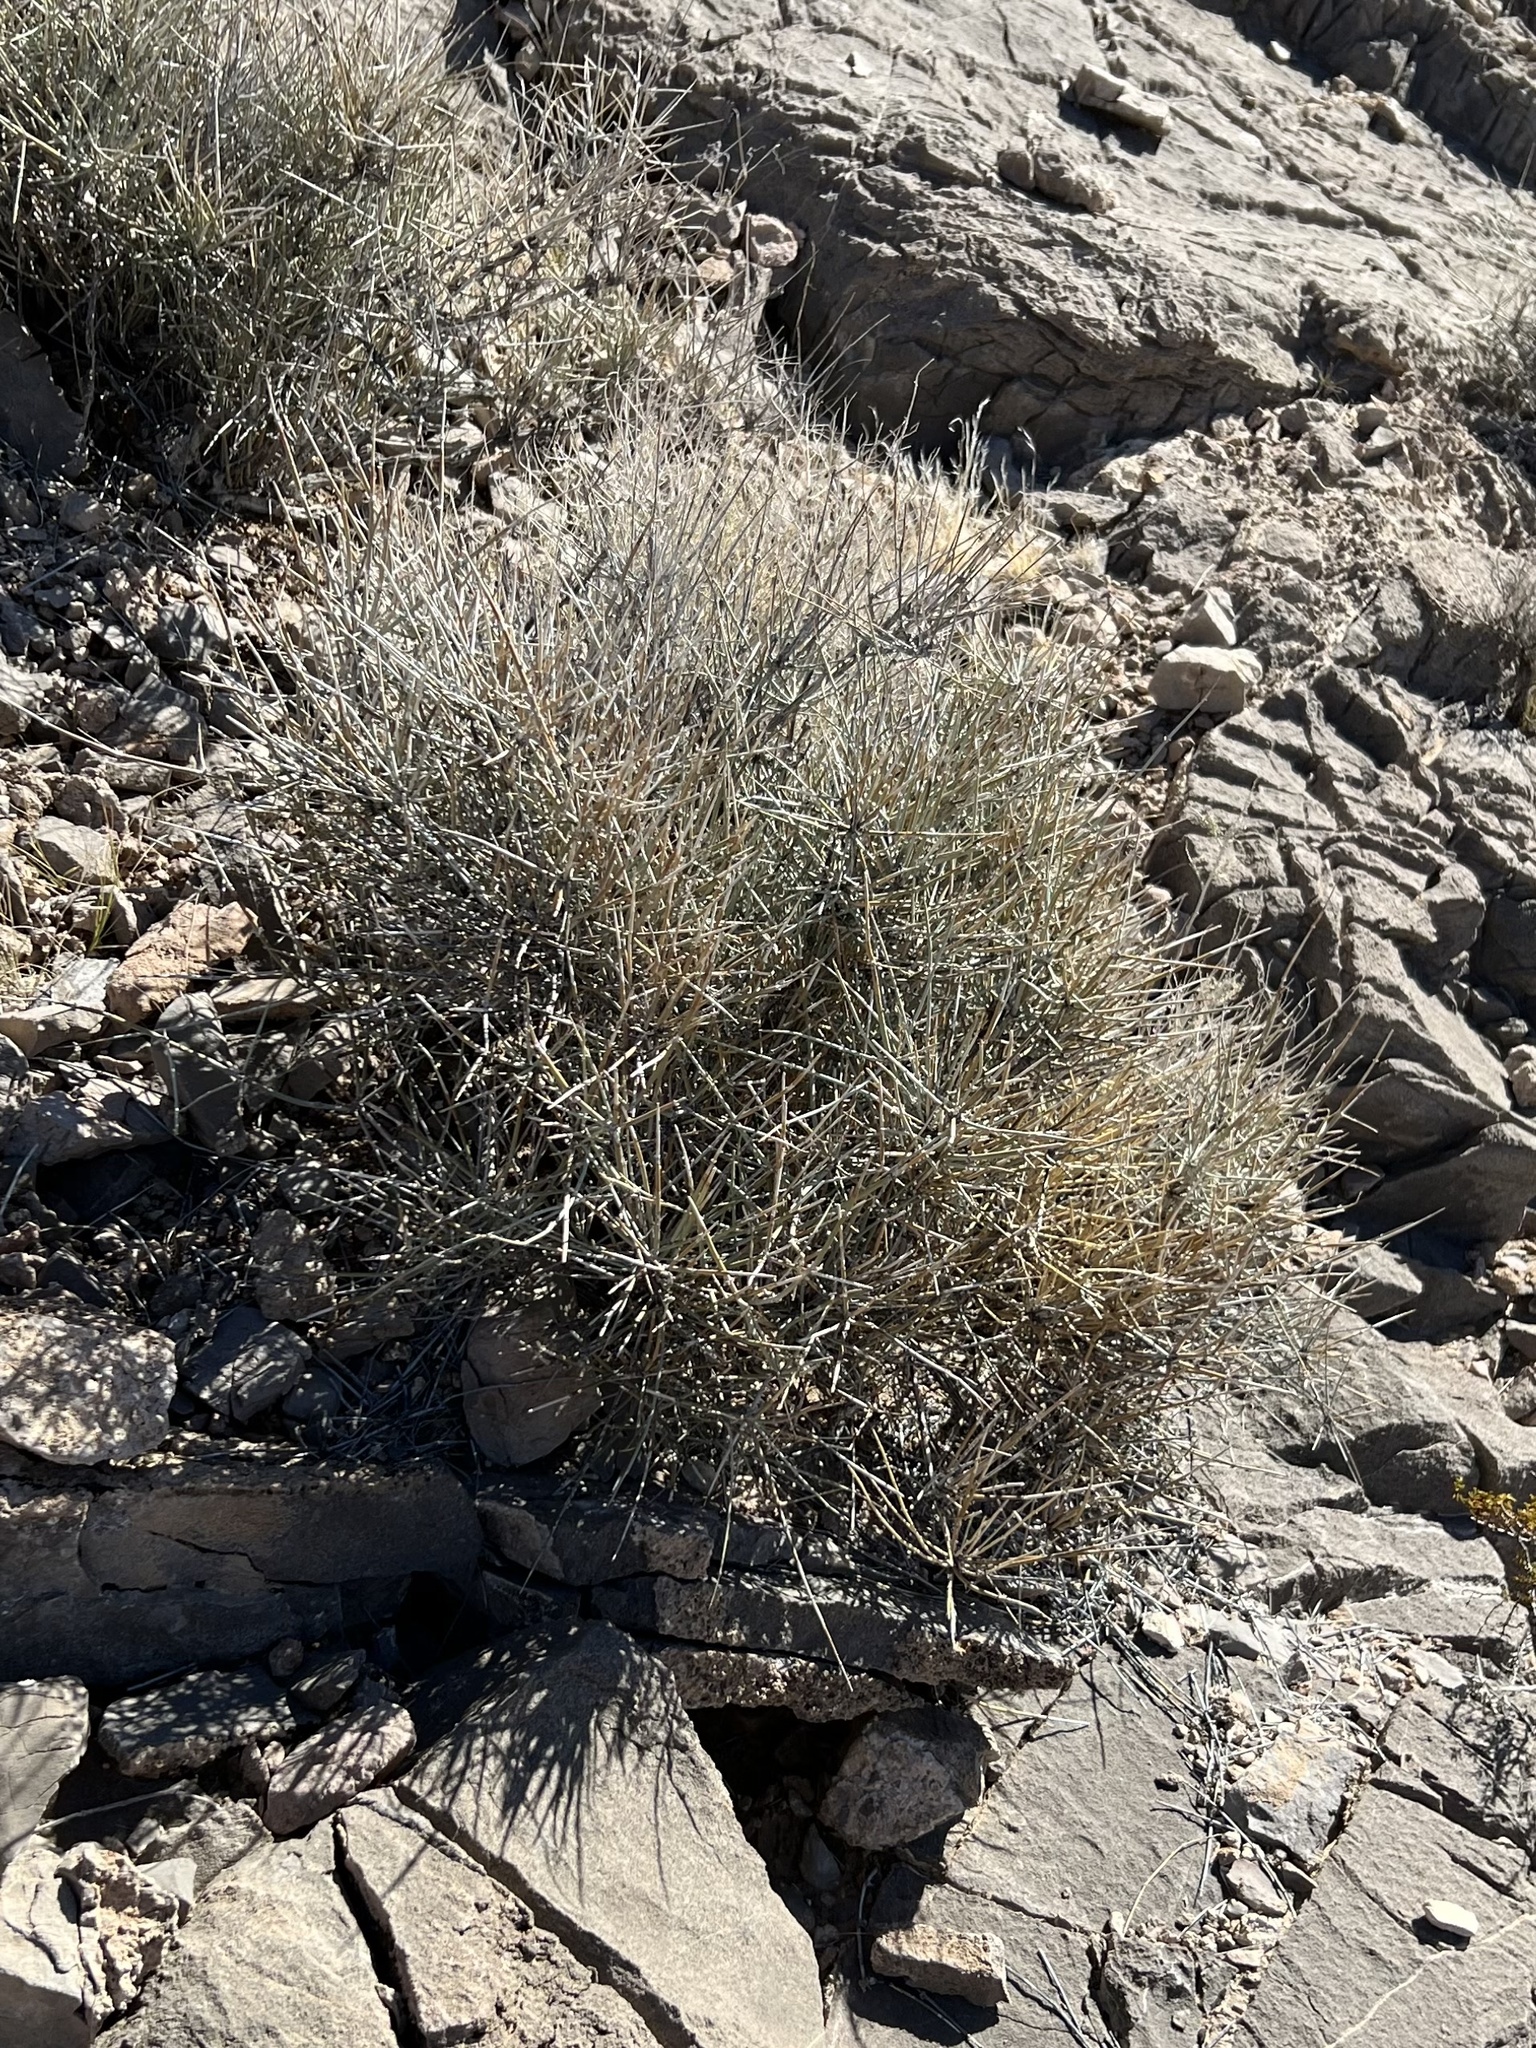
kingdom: Plantae
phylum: Tracheophyta
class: Gnetopsida
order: Ephedrales
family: Ephedraceae
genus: Ephedra
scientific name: Ephedra nevadensis
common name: Gray ephedra
